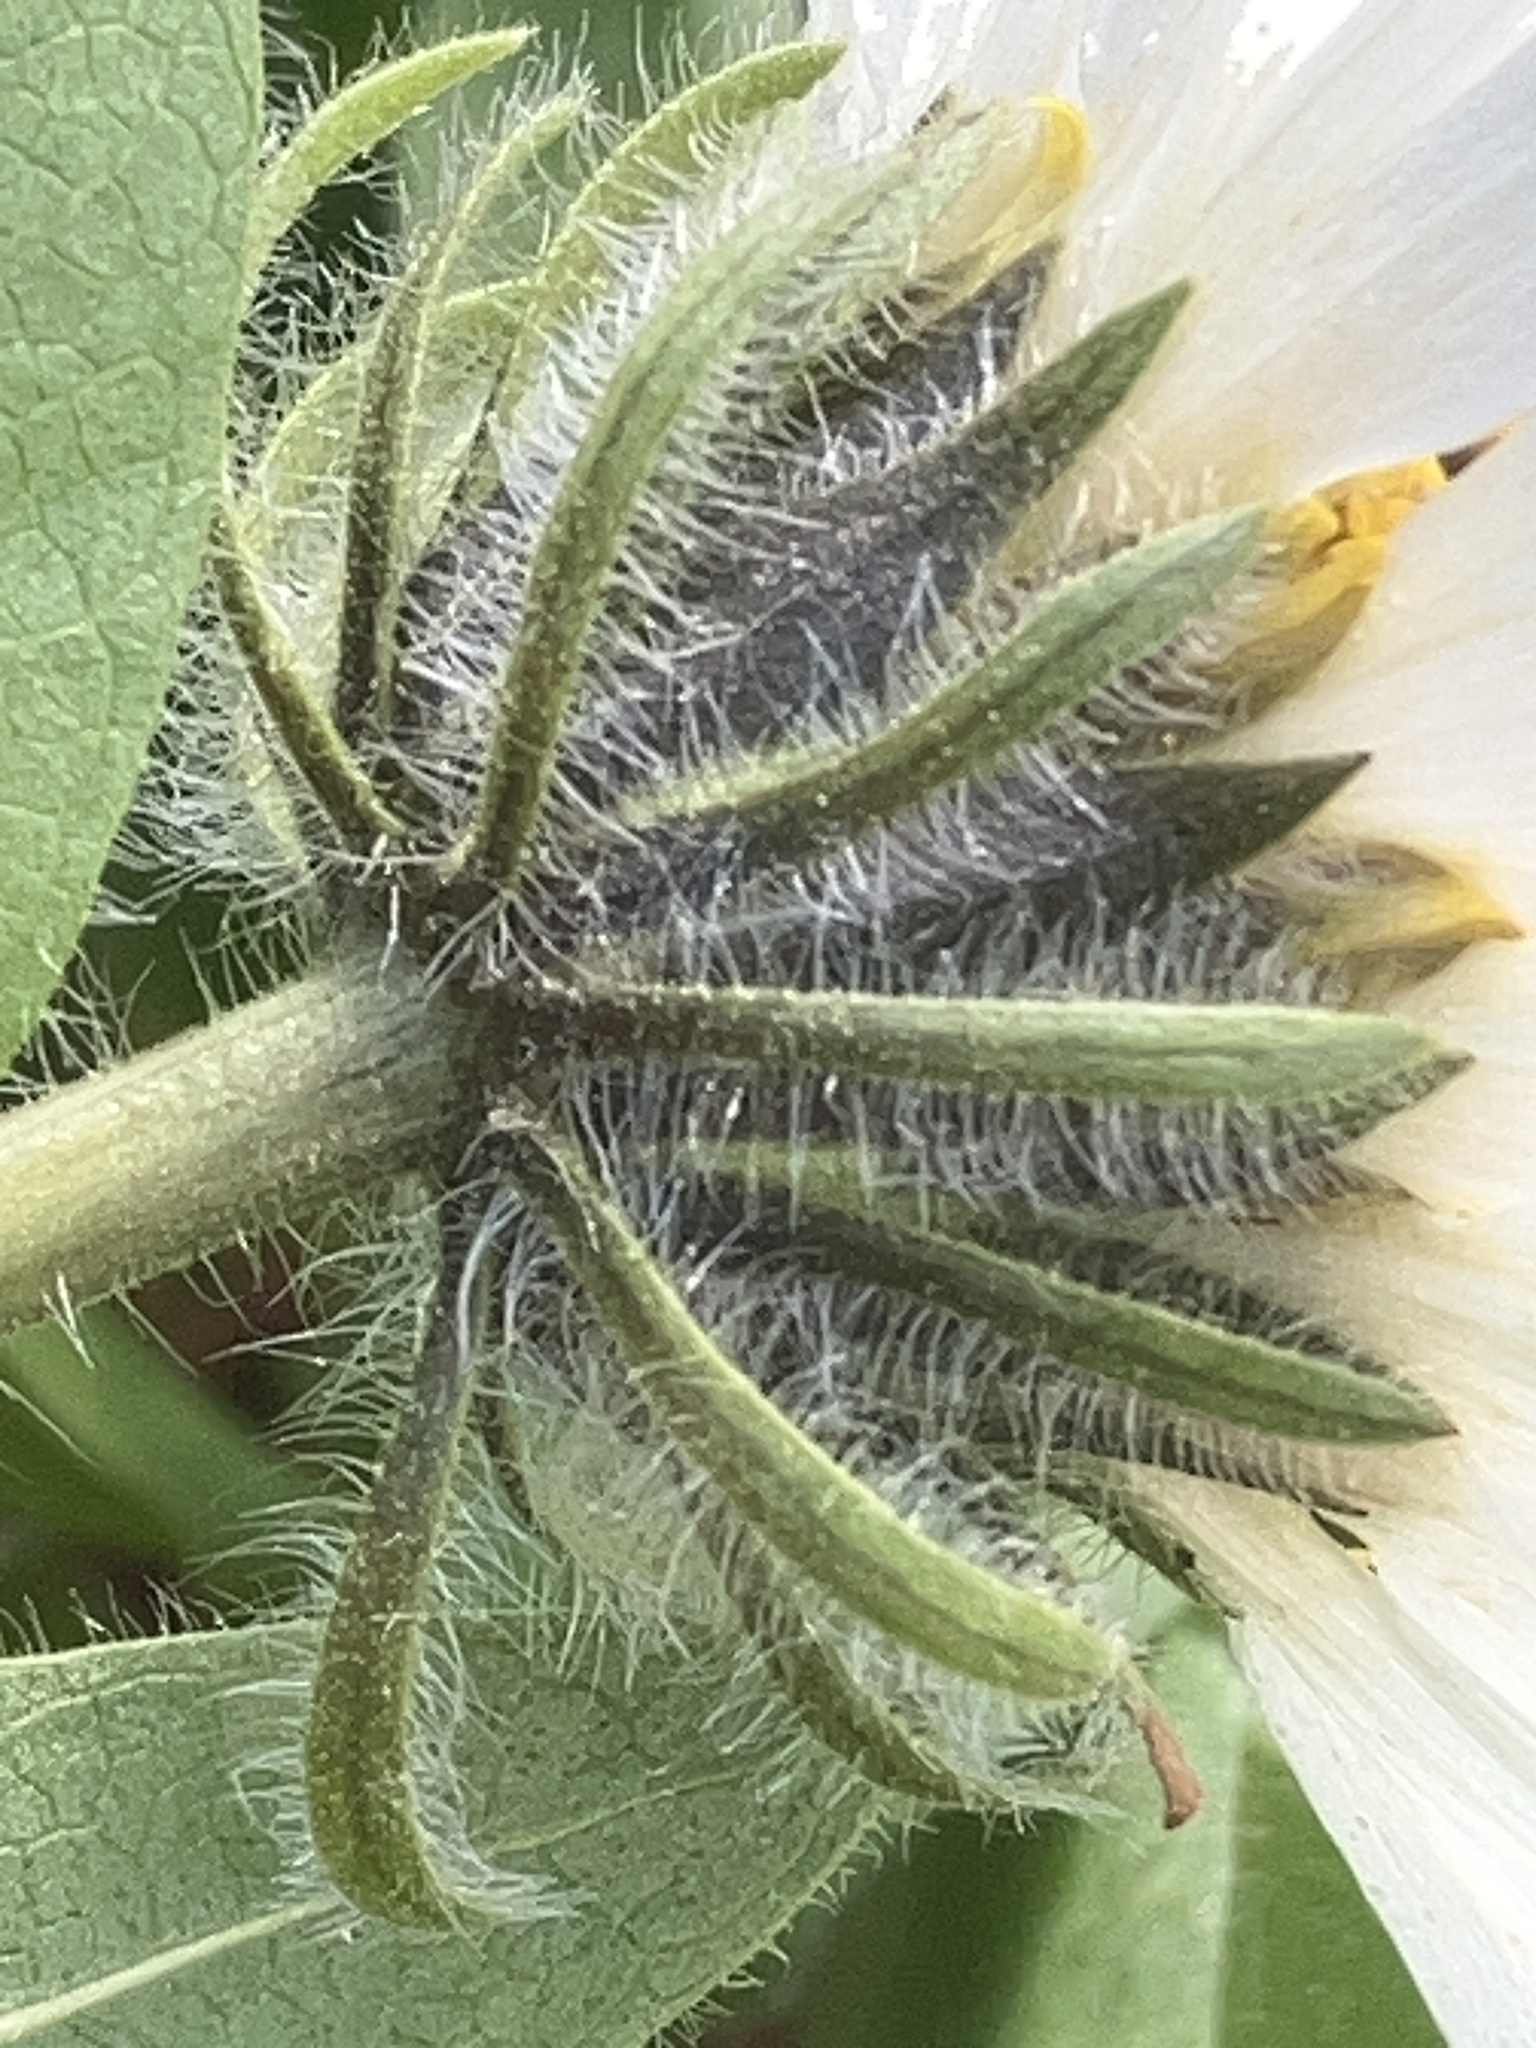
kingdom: Plantae
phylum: Tracheophyta
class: Magnoliopsida
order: Asterales
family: Asteraceae
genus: Wyethia
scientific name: Wyethia helianthoides
